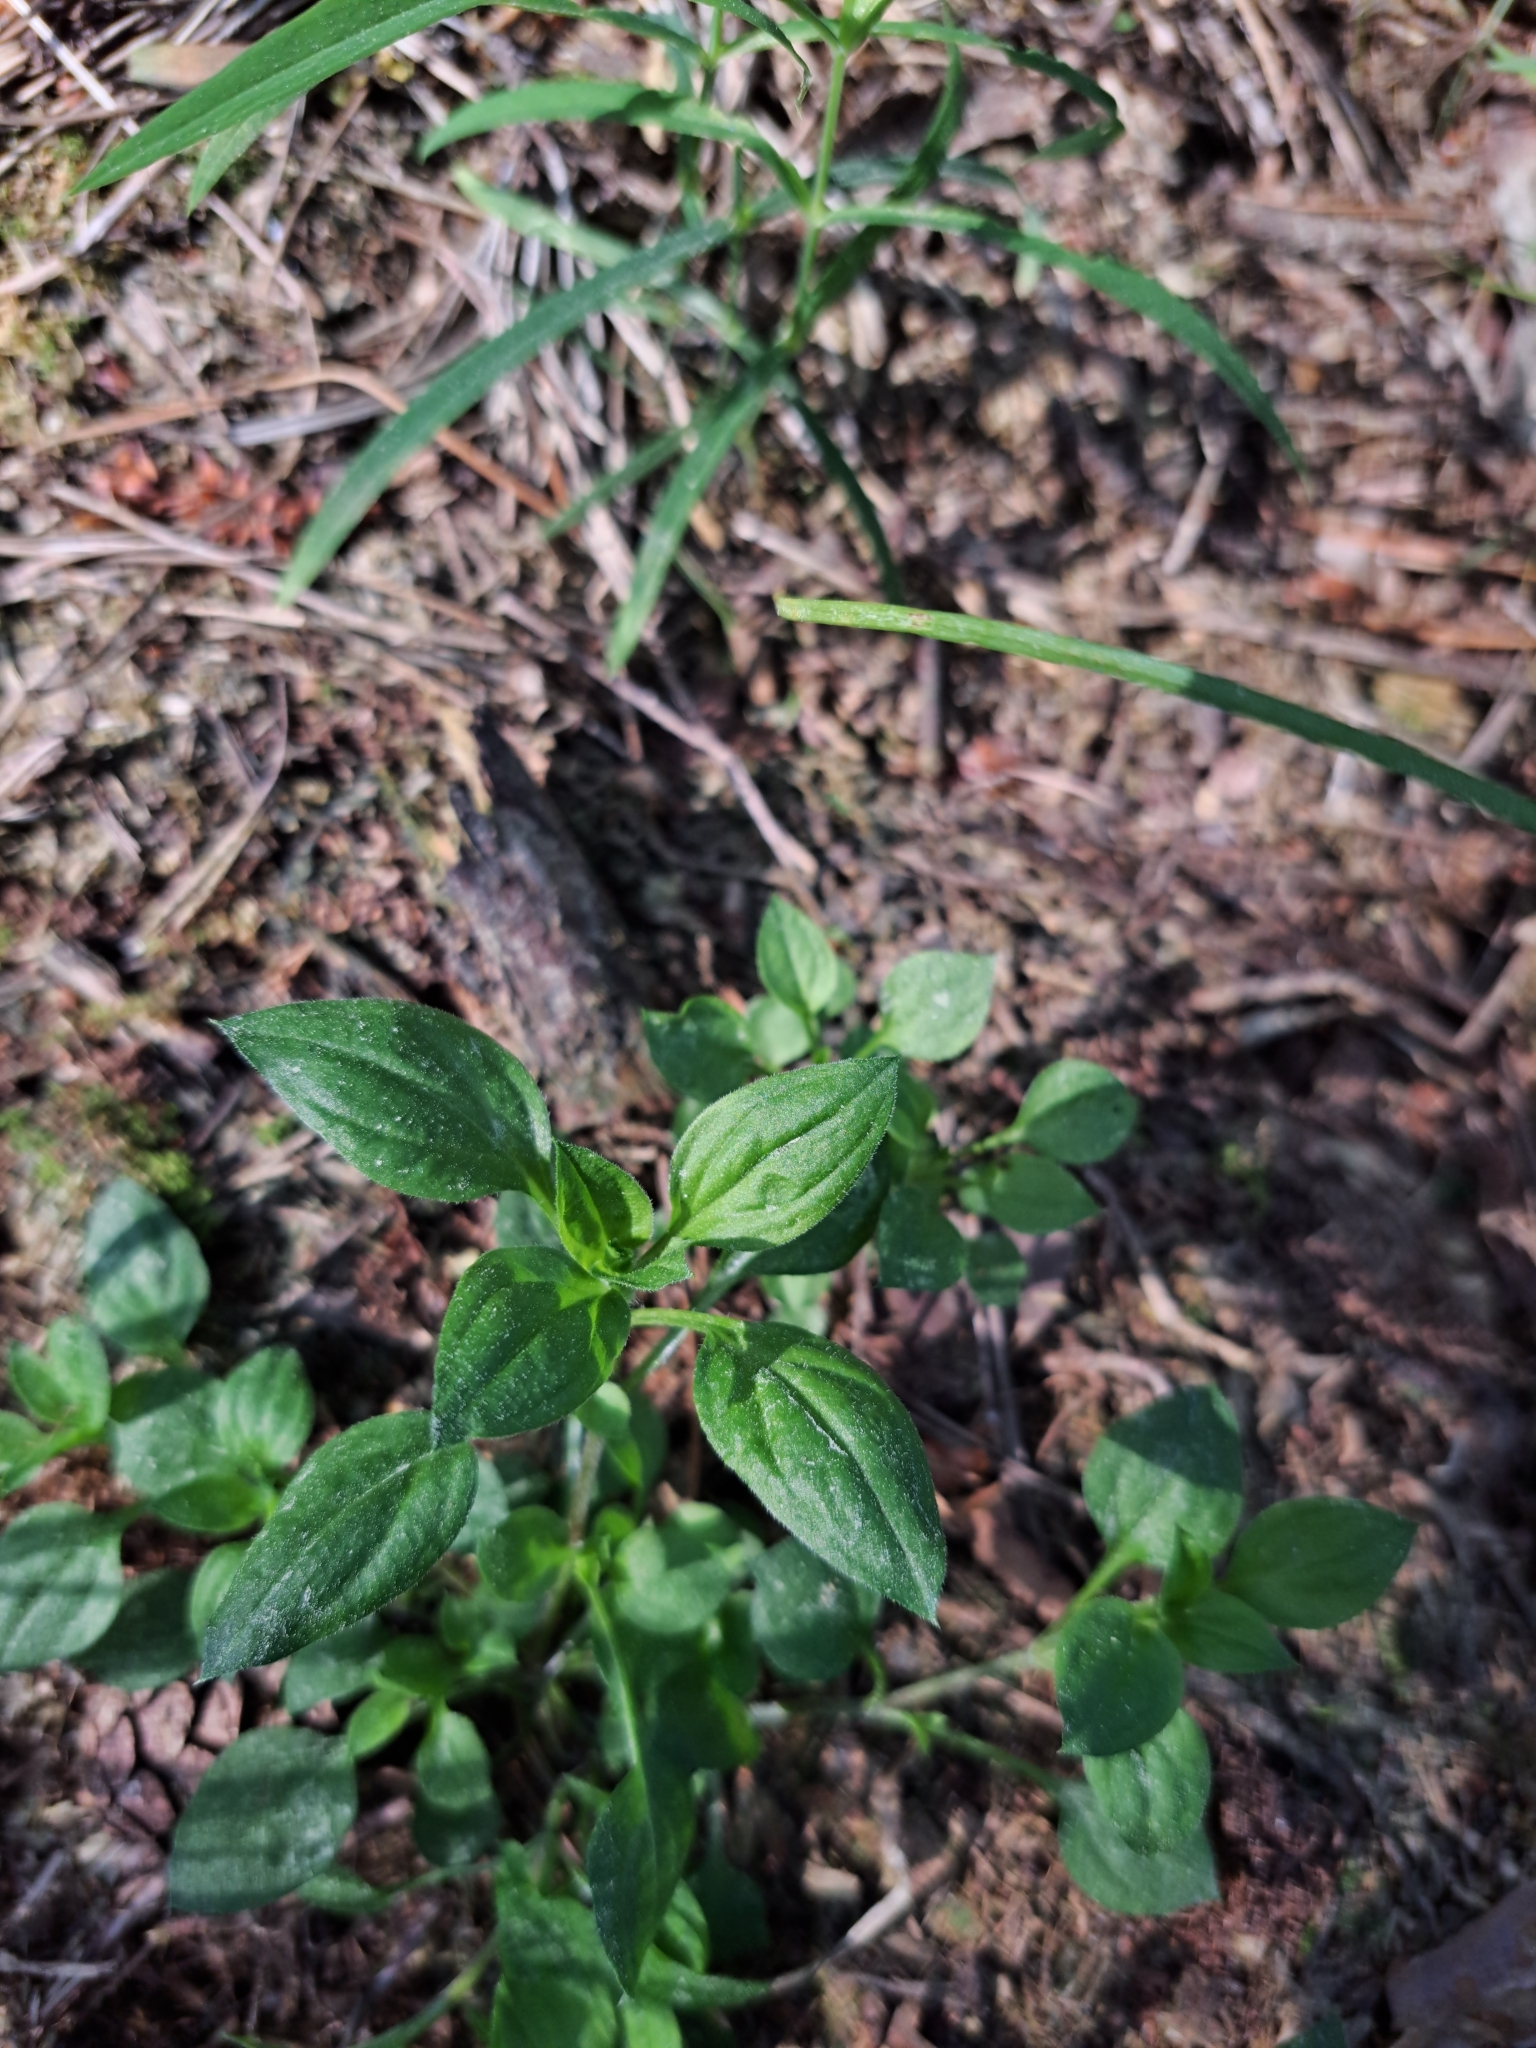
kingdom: Plantae
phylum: Tracheophyta
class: Magnoliopsida
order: Caryophyllales
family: Caryophyllaceae
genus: Moehringia
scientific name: Moehringia trinervia
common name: Three-nerved sandwort
